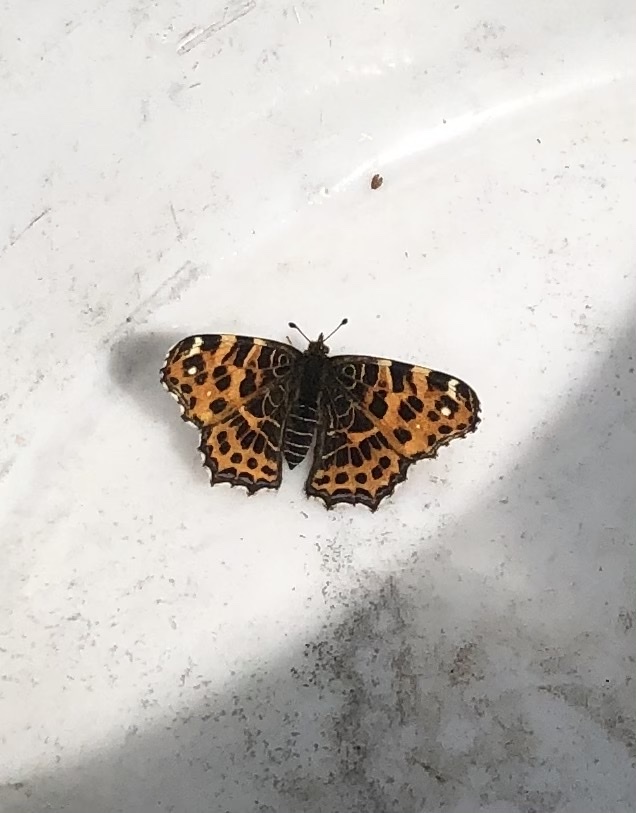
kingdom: Animalia
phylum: Arthropoda
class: Insecta
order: Lepidoptera
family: Nymphalidae
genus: Araschnia
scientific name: Araschnia levana
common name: Map butterfly
